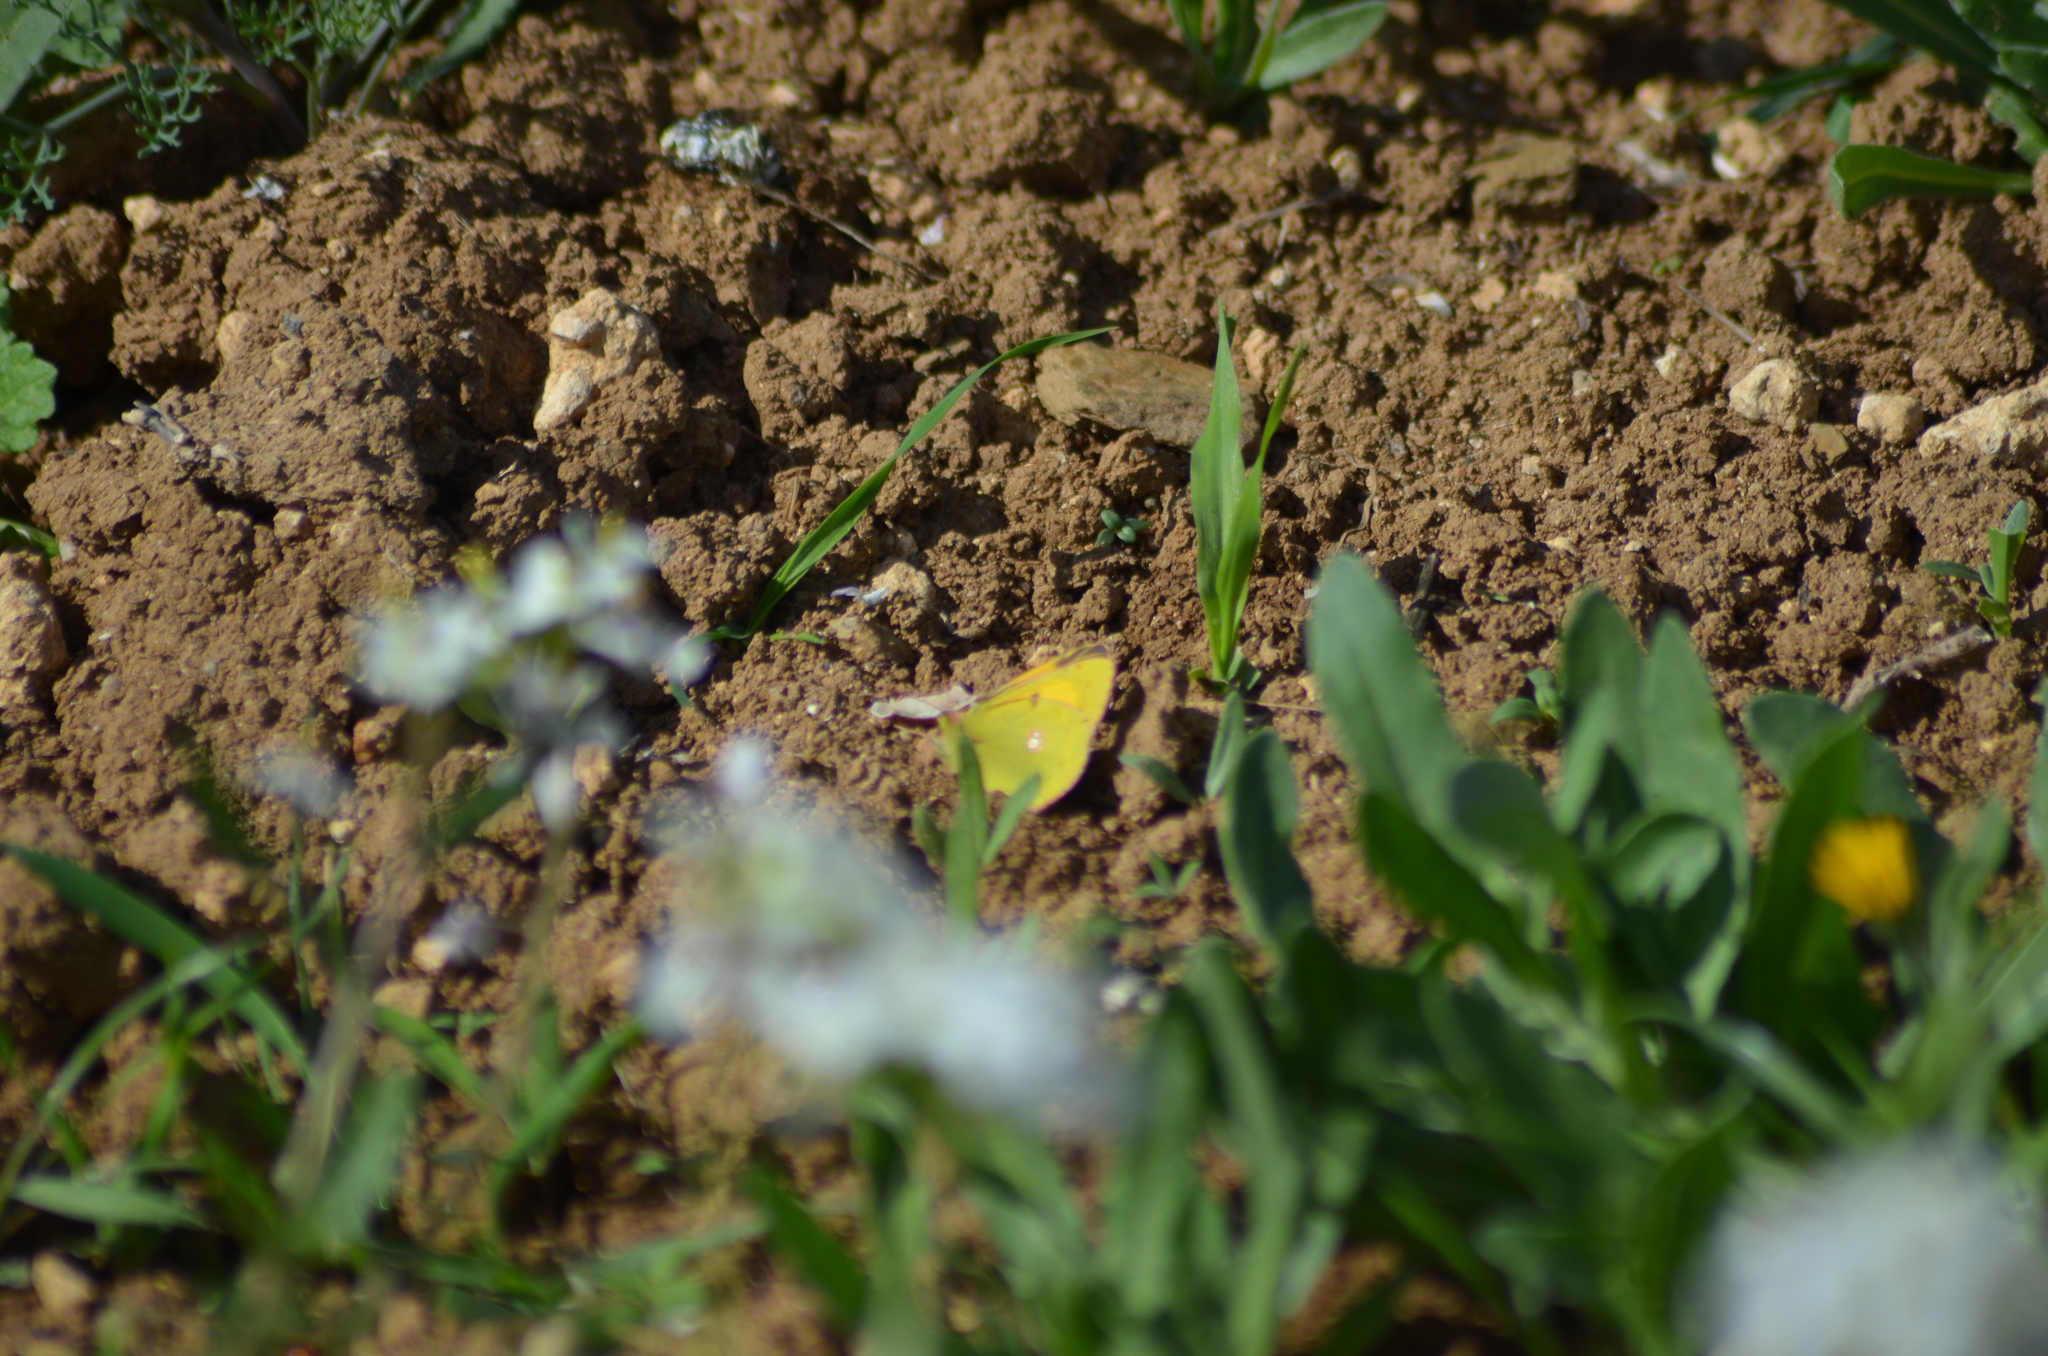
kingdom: Animalia
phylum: Arthropoda
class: Insecta
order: Lepidoptera
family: Pieridae
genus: Colias
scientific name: Colias croceus
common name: Clouded yellow
